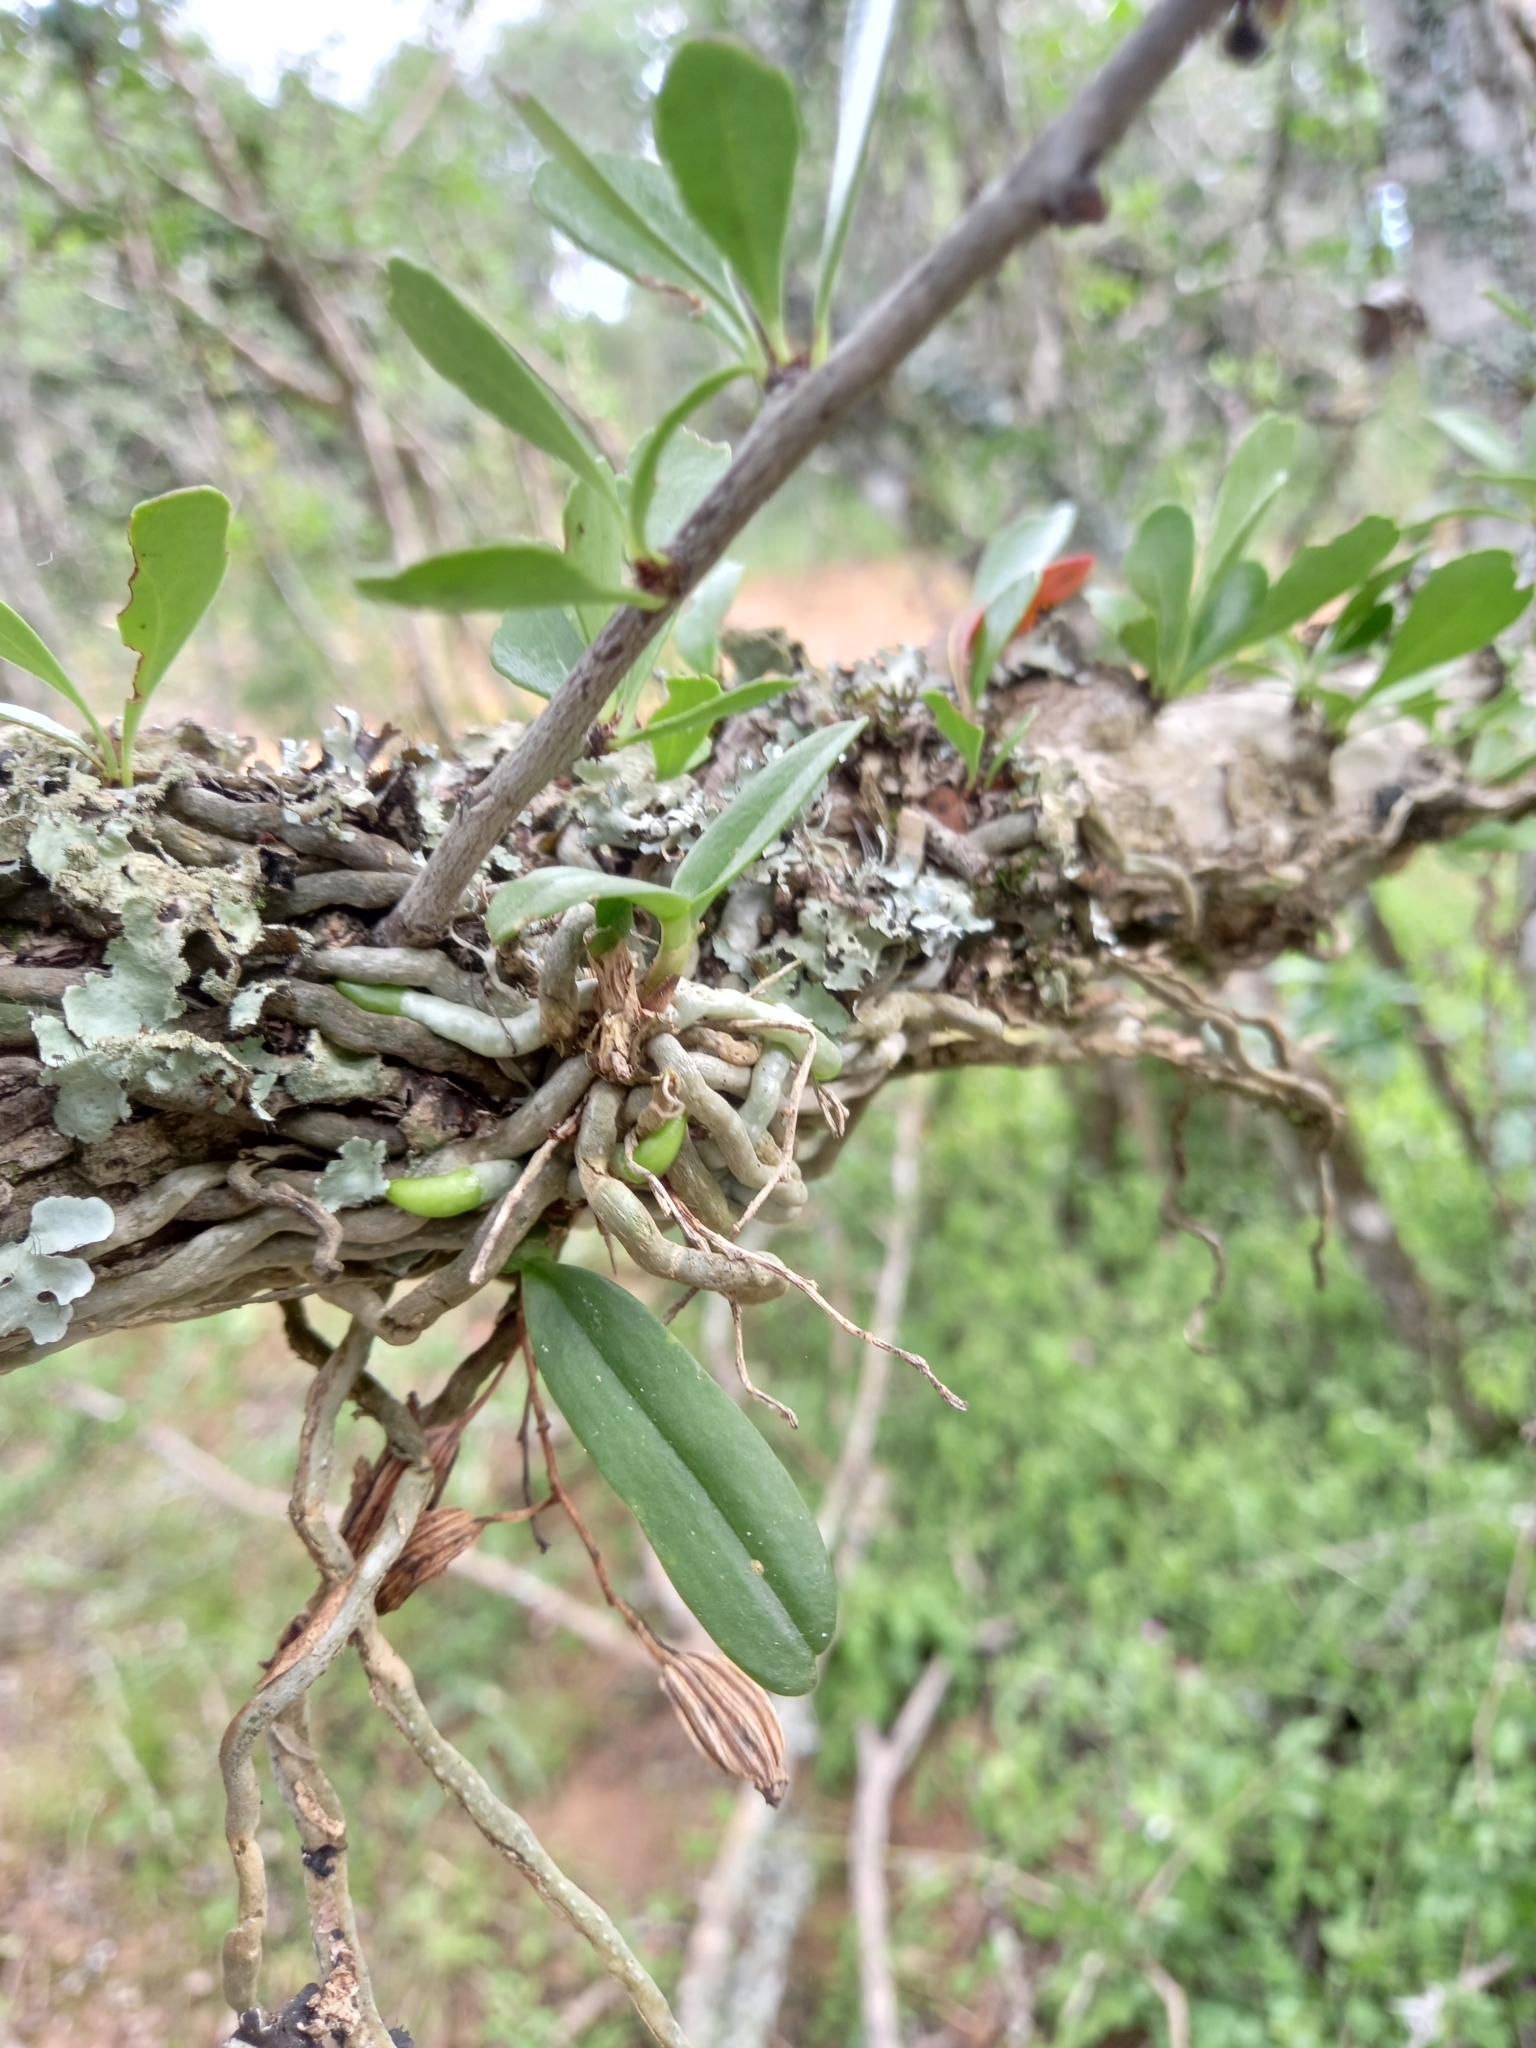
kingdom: Plantae
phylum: Tracheophyta
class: Liliopsida
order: Asparagales
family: Orchidaceae
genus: Mystacidium
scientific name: Mystacidium capense
